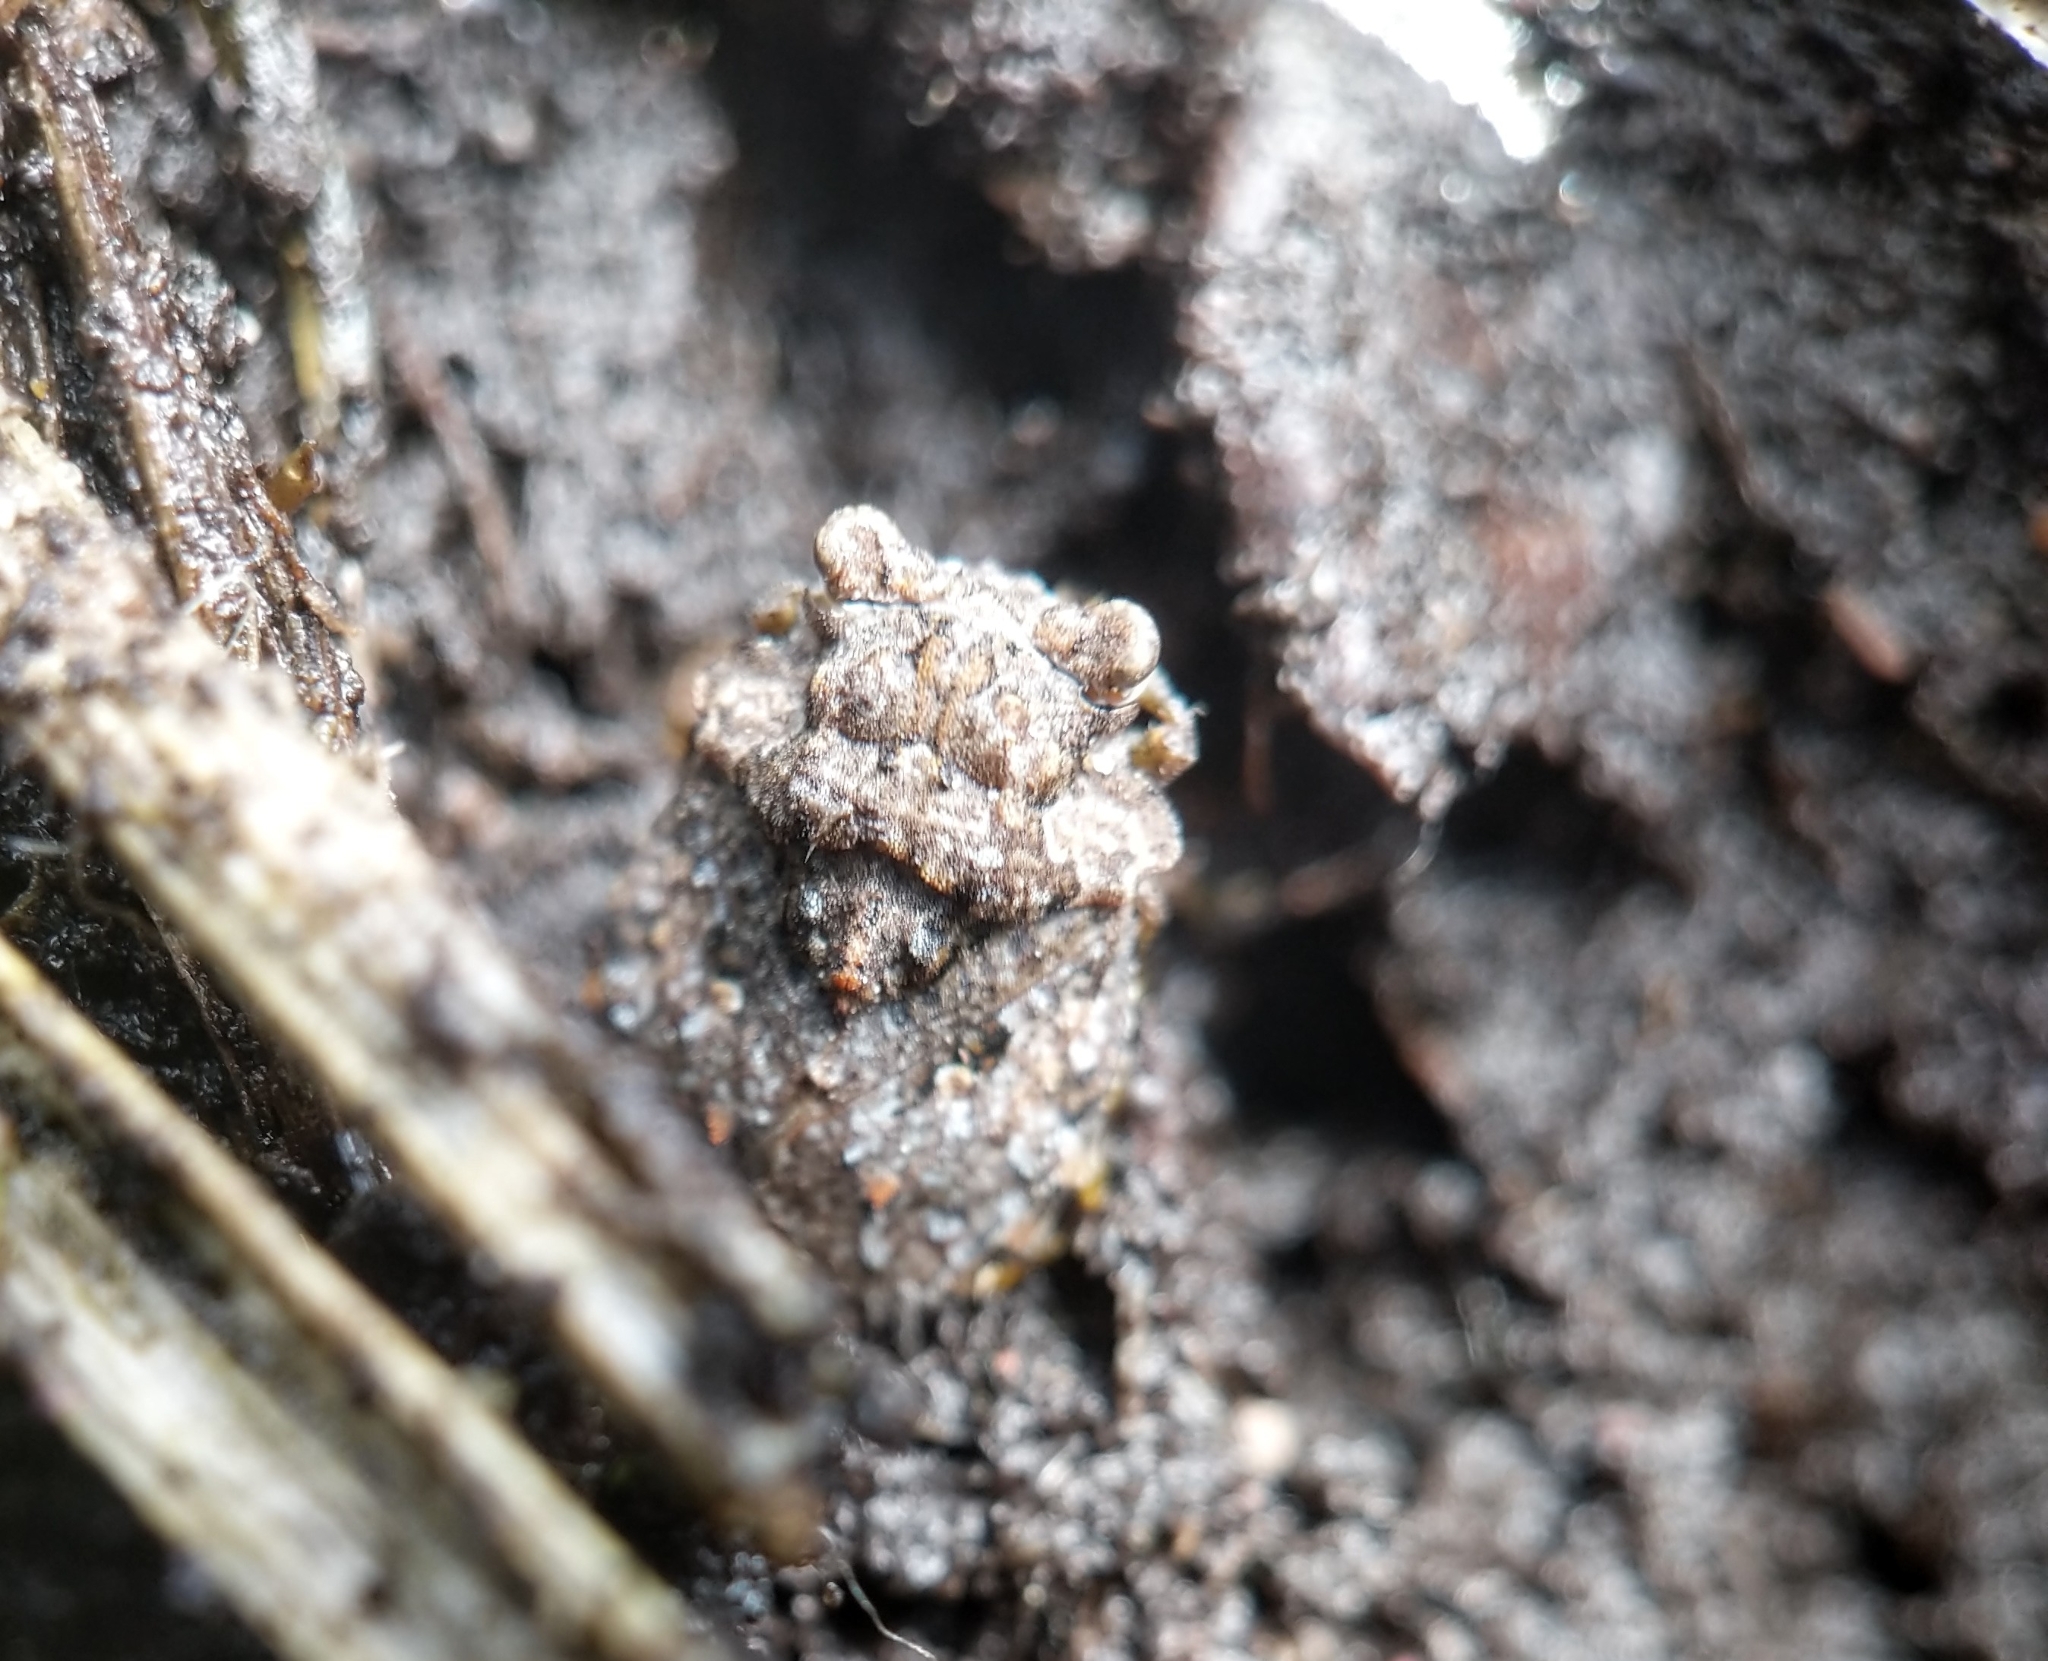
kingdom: Animalia
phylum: Arthropoda
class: Insecta
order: Hemiptera
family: Gelastocoridae
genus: Gelastocoris
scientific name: Gelastocoris oculatus
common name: Toad bug
